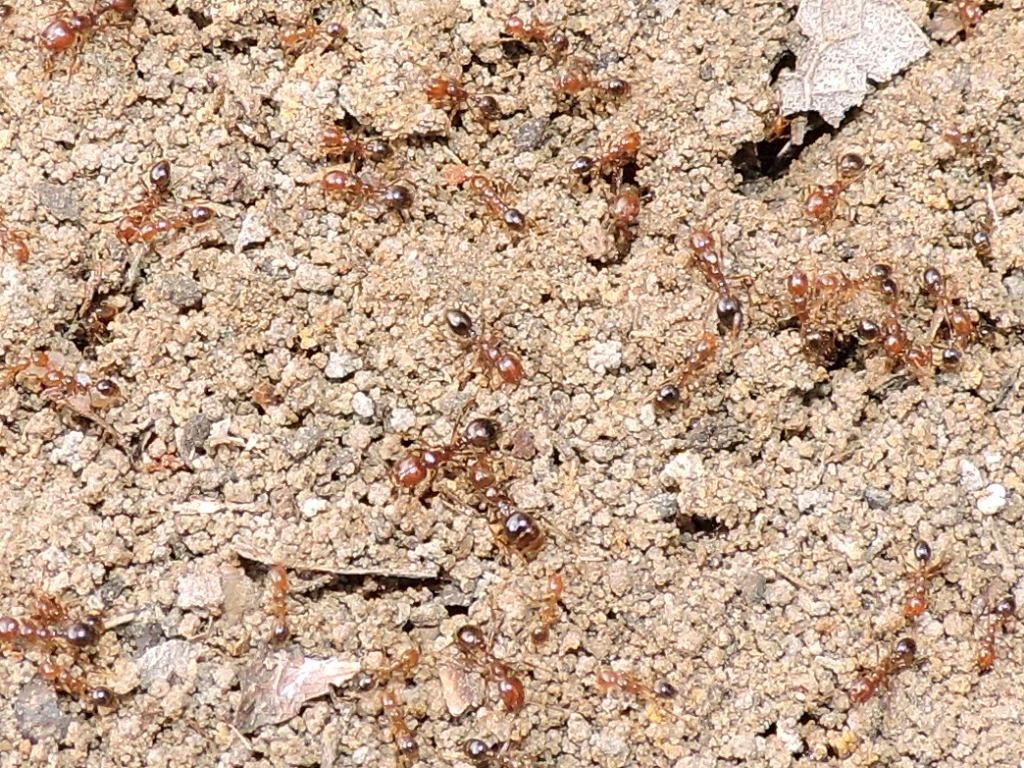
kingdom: Animalia
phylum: Arthropoda
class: Insecta
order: Hymenoptera
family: Formicidae
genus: Solenopsis
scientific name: Solenopsis invicta
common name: Red imported fire ant
